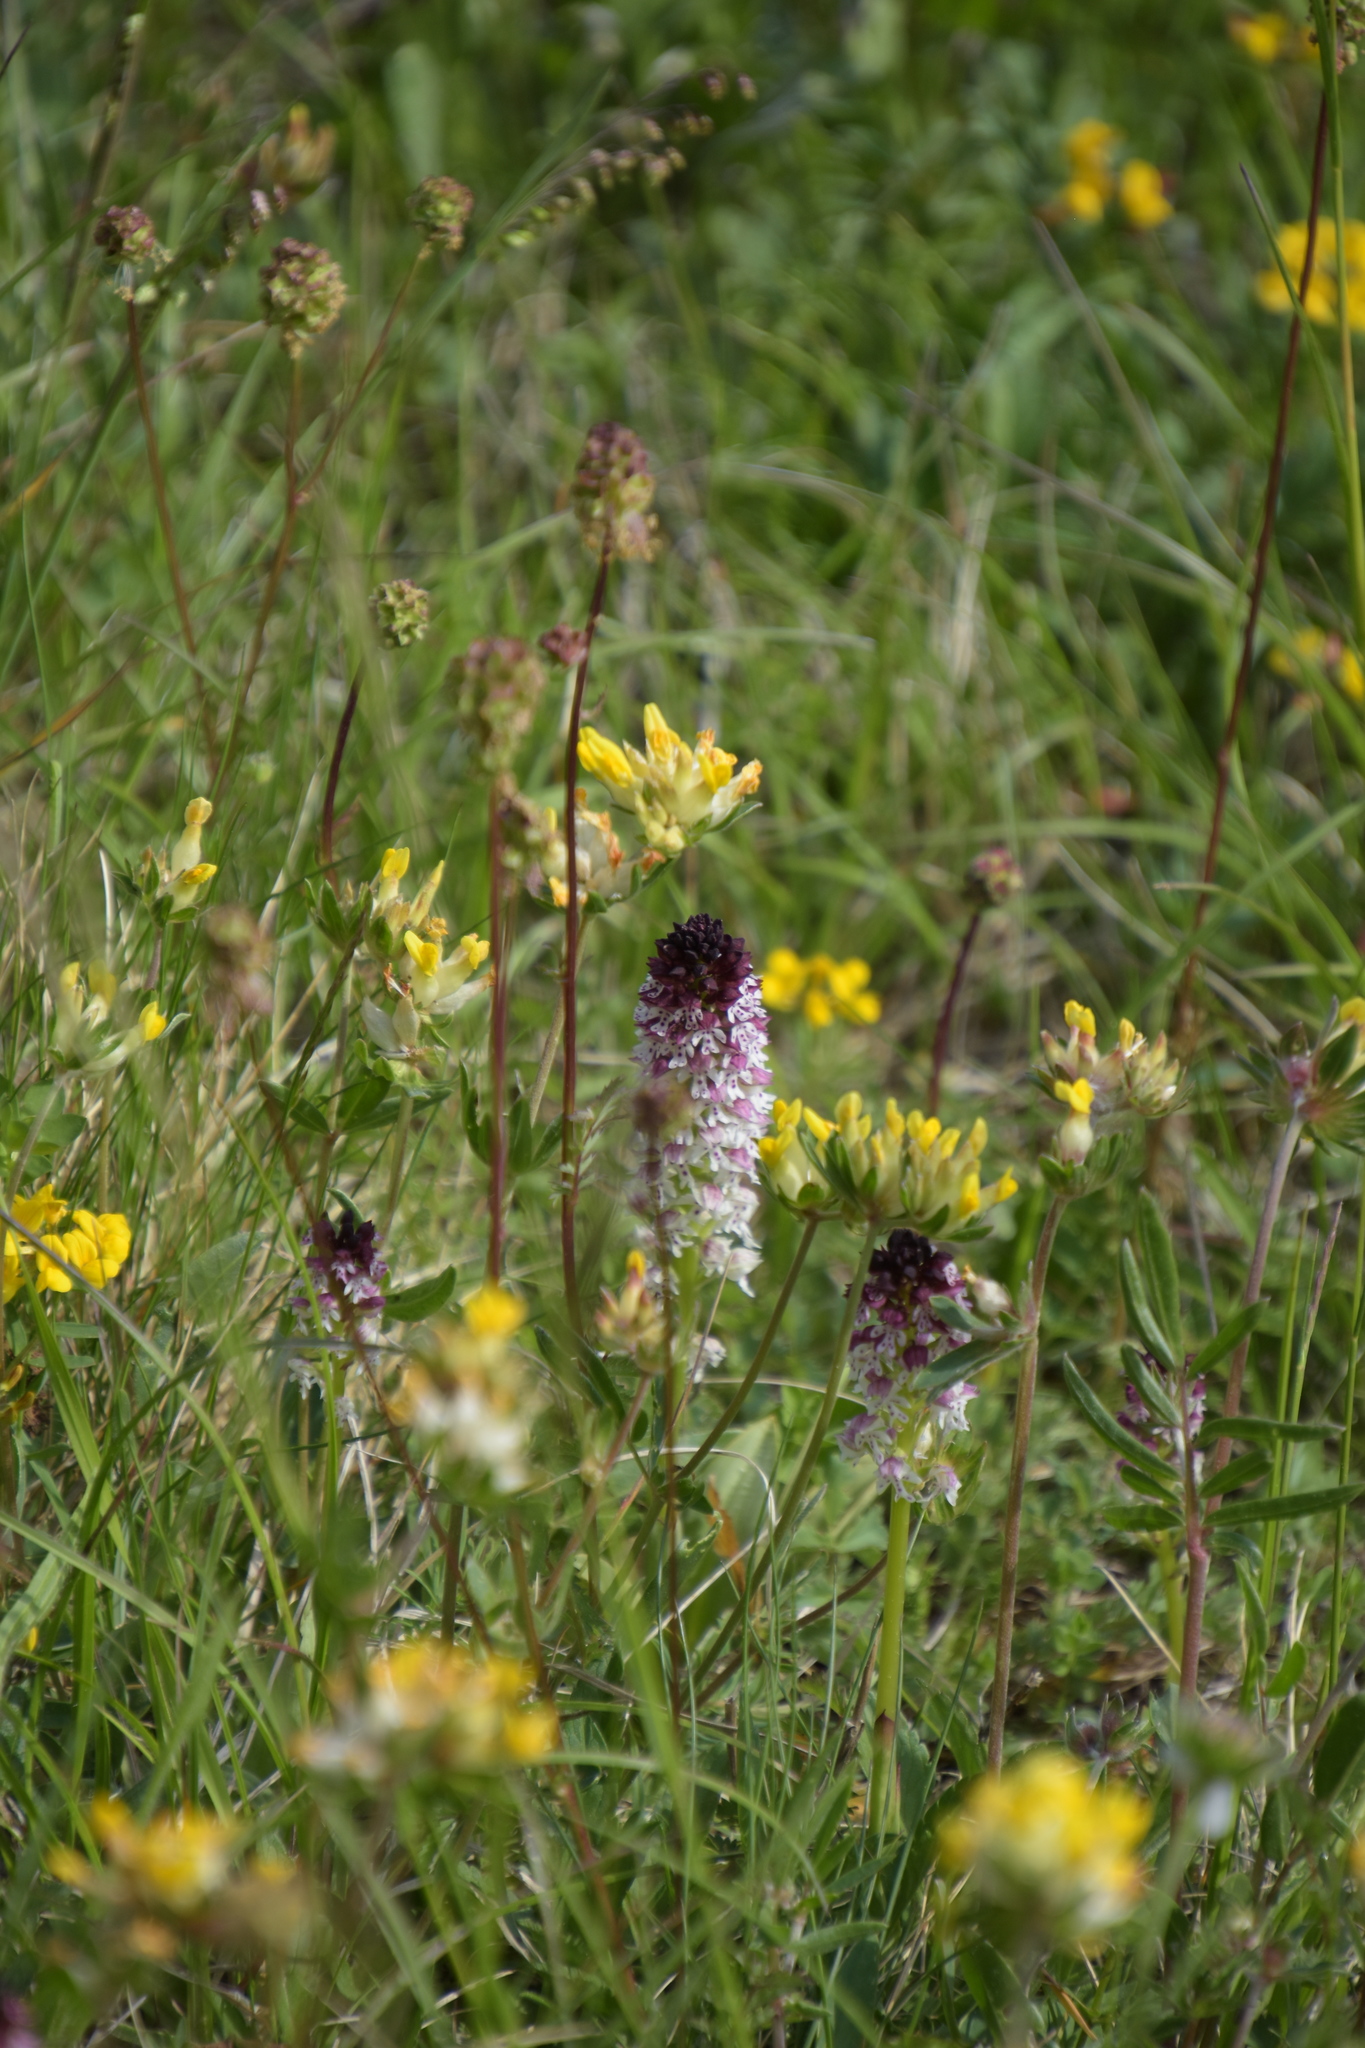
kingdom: Plantae
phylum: Tracheophyta
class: Liliopsida
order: Asparagales
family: Orchidaceae
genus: Neotinea
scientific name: Neotinea ustulata
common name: Burnt orchid
